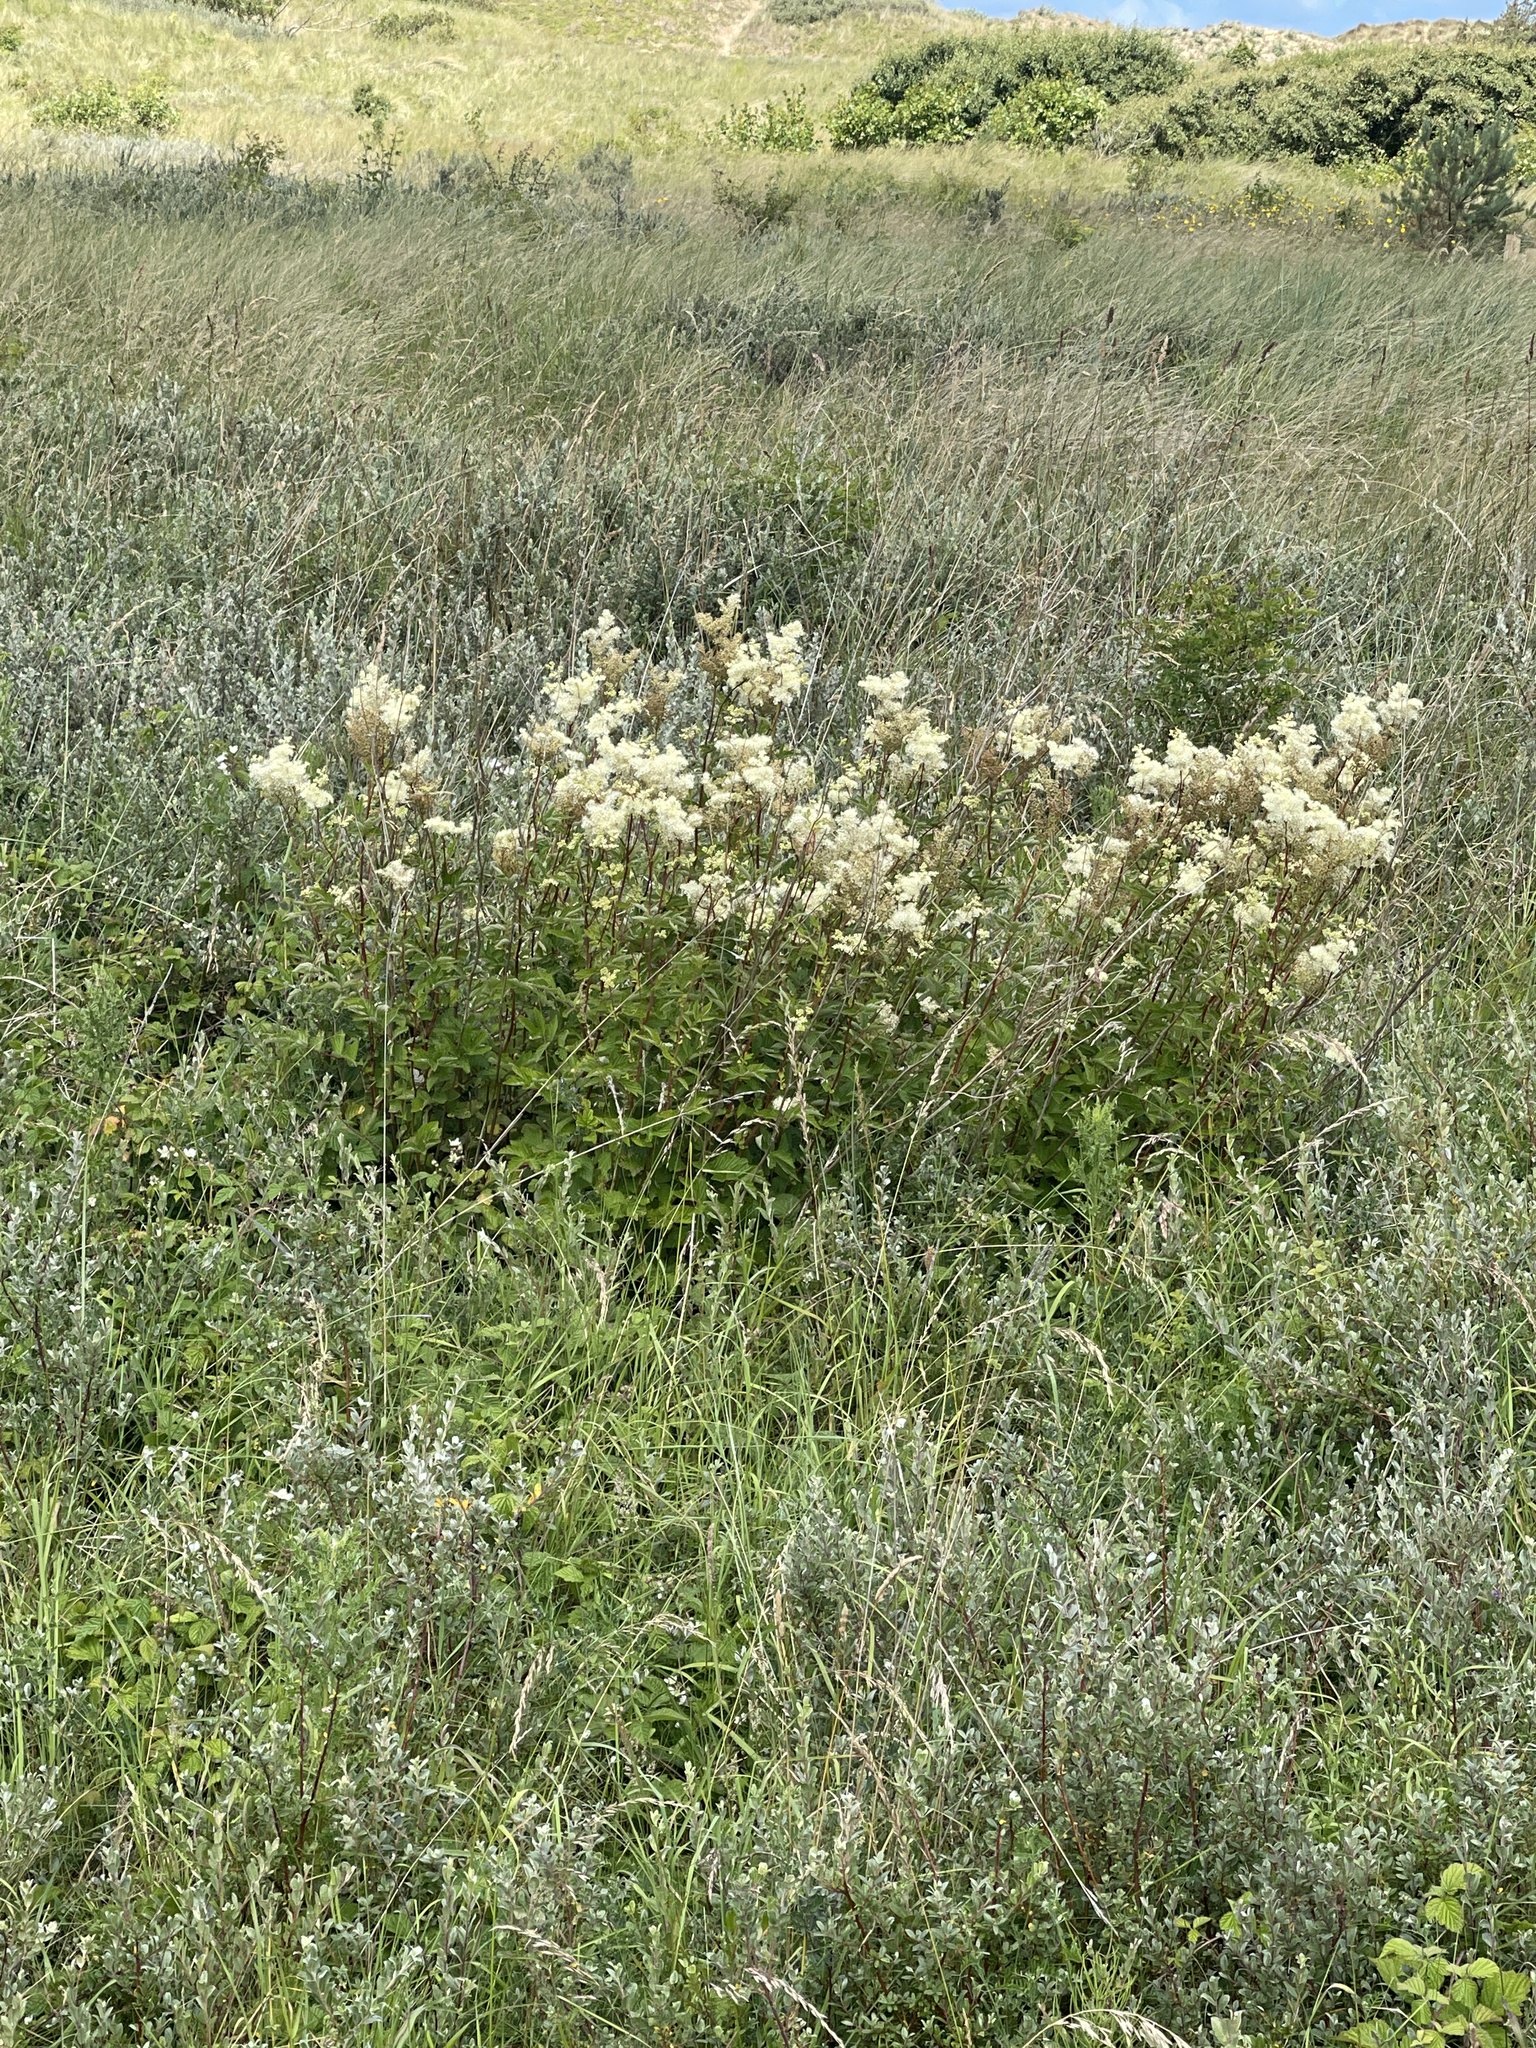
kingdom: Plantae
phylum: Tracheophyta
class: Magnoliopsida
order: Rosales
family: Rosaceae
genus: Filipendula
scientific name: Filipendula ulmaria
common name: Meadowsweet
